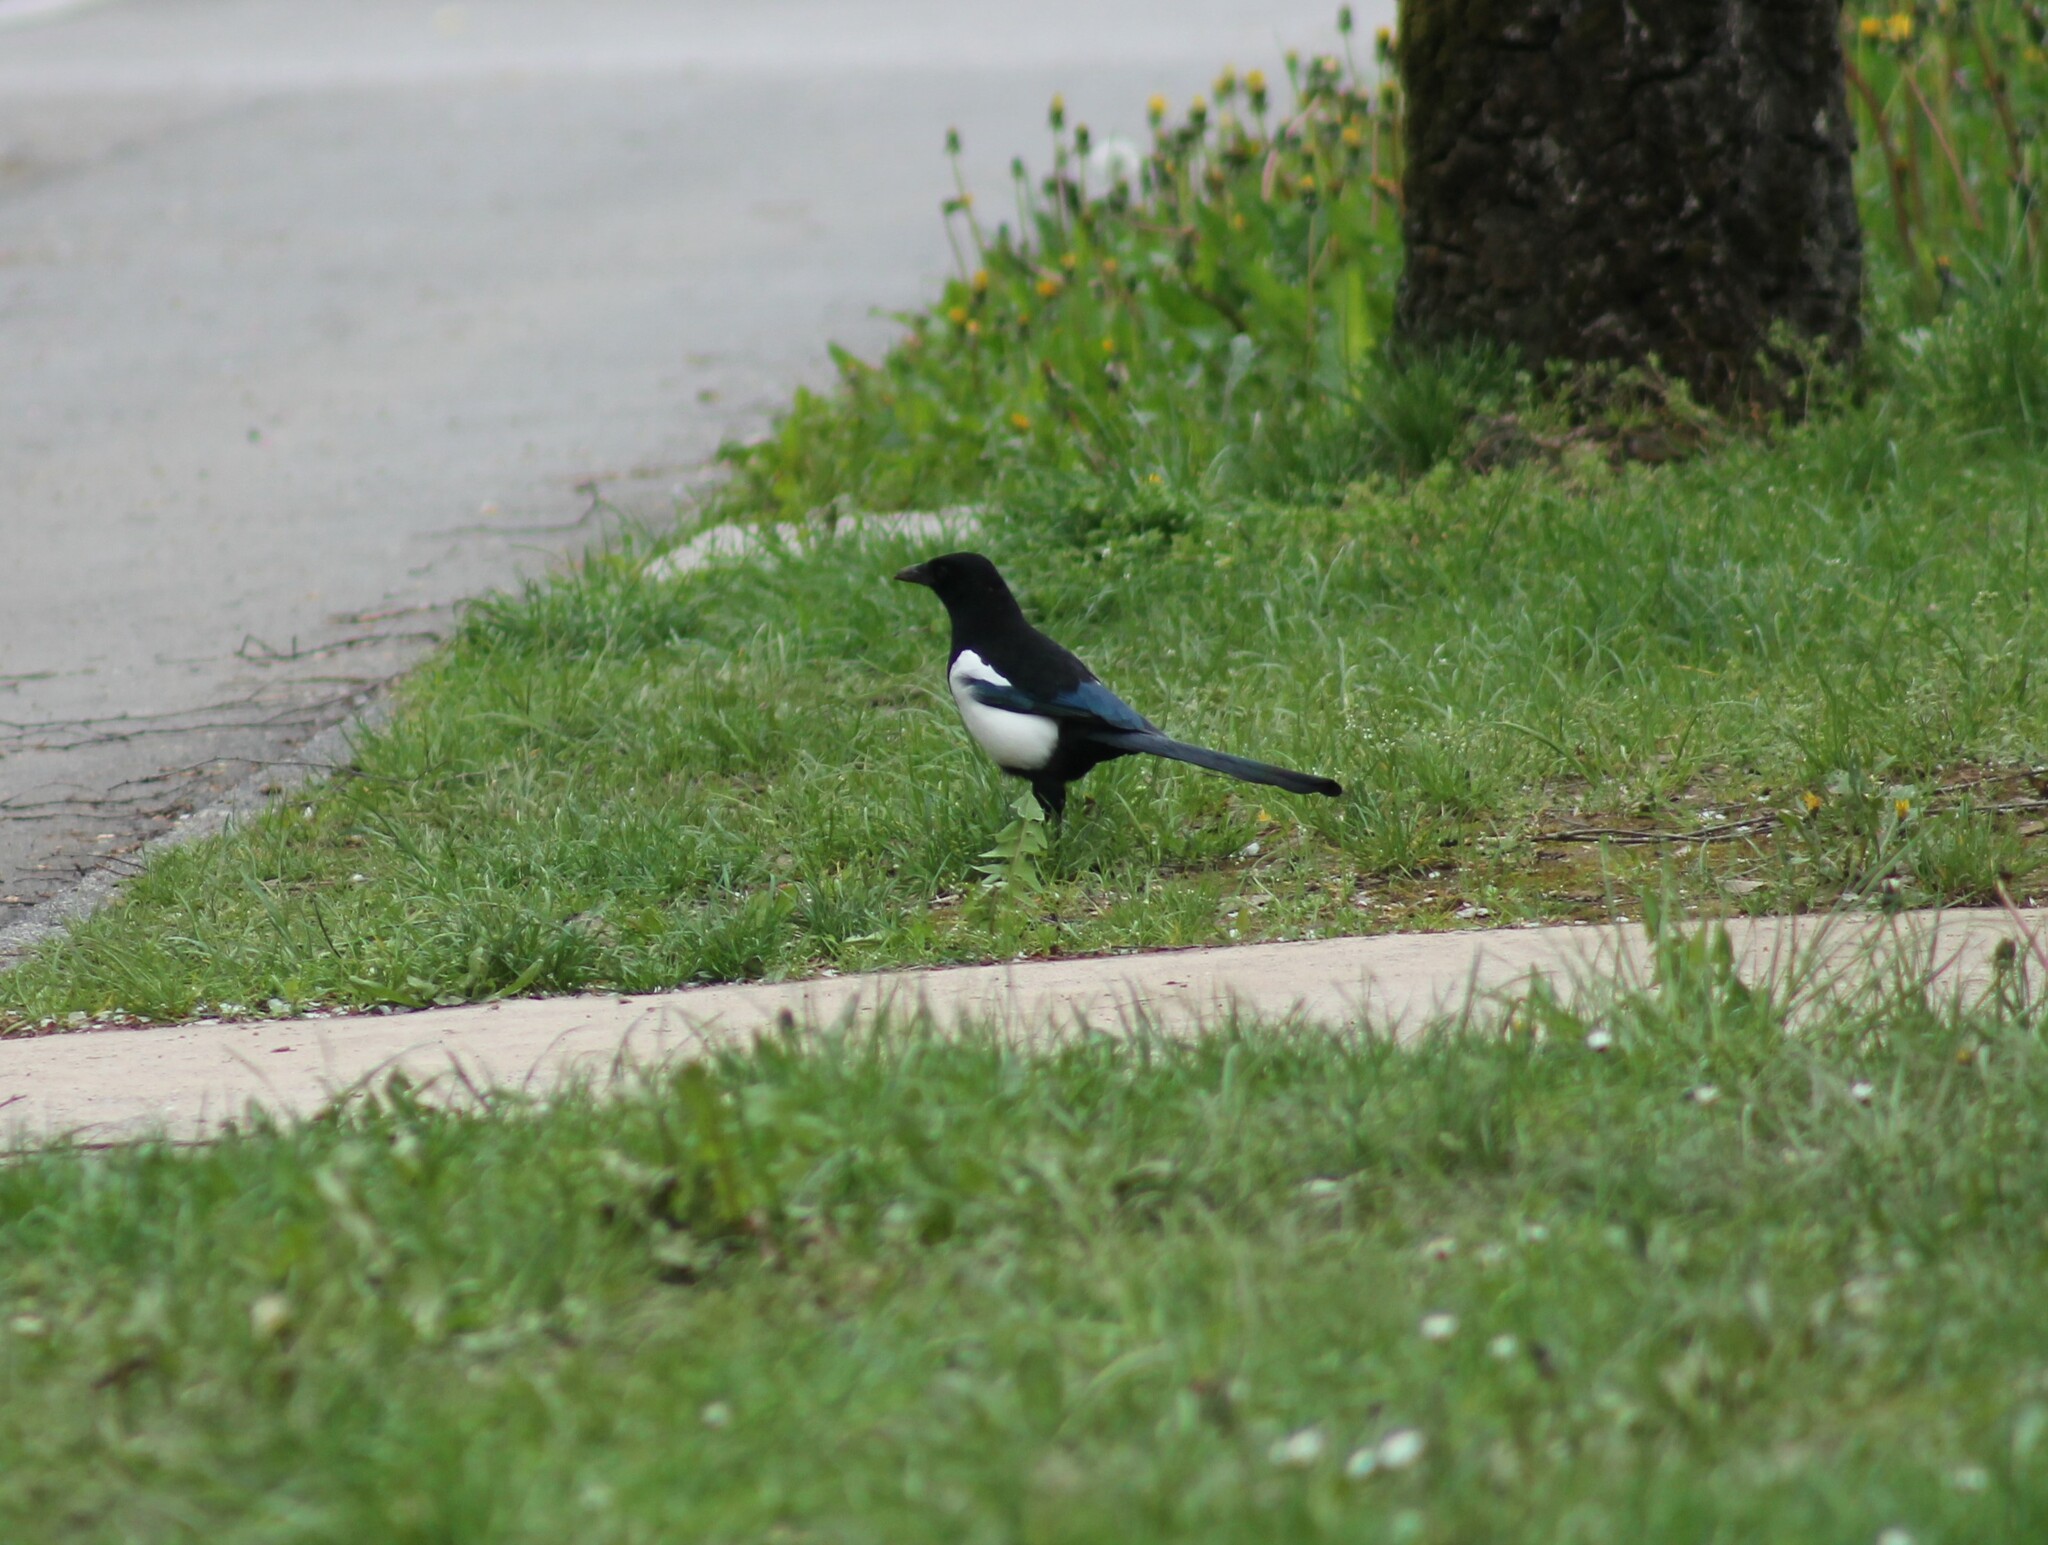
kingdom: Animalia
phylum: Chordata
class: Aves
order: Passeriformes
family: Corvidae
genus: Pica
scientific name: Pica pica
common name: Eurasian magpie
